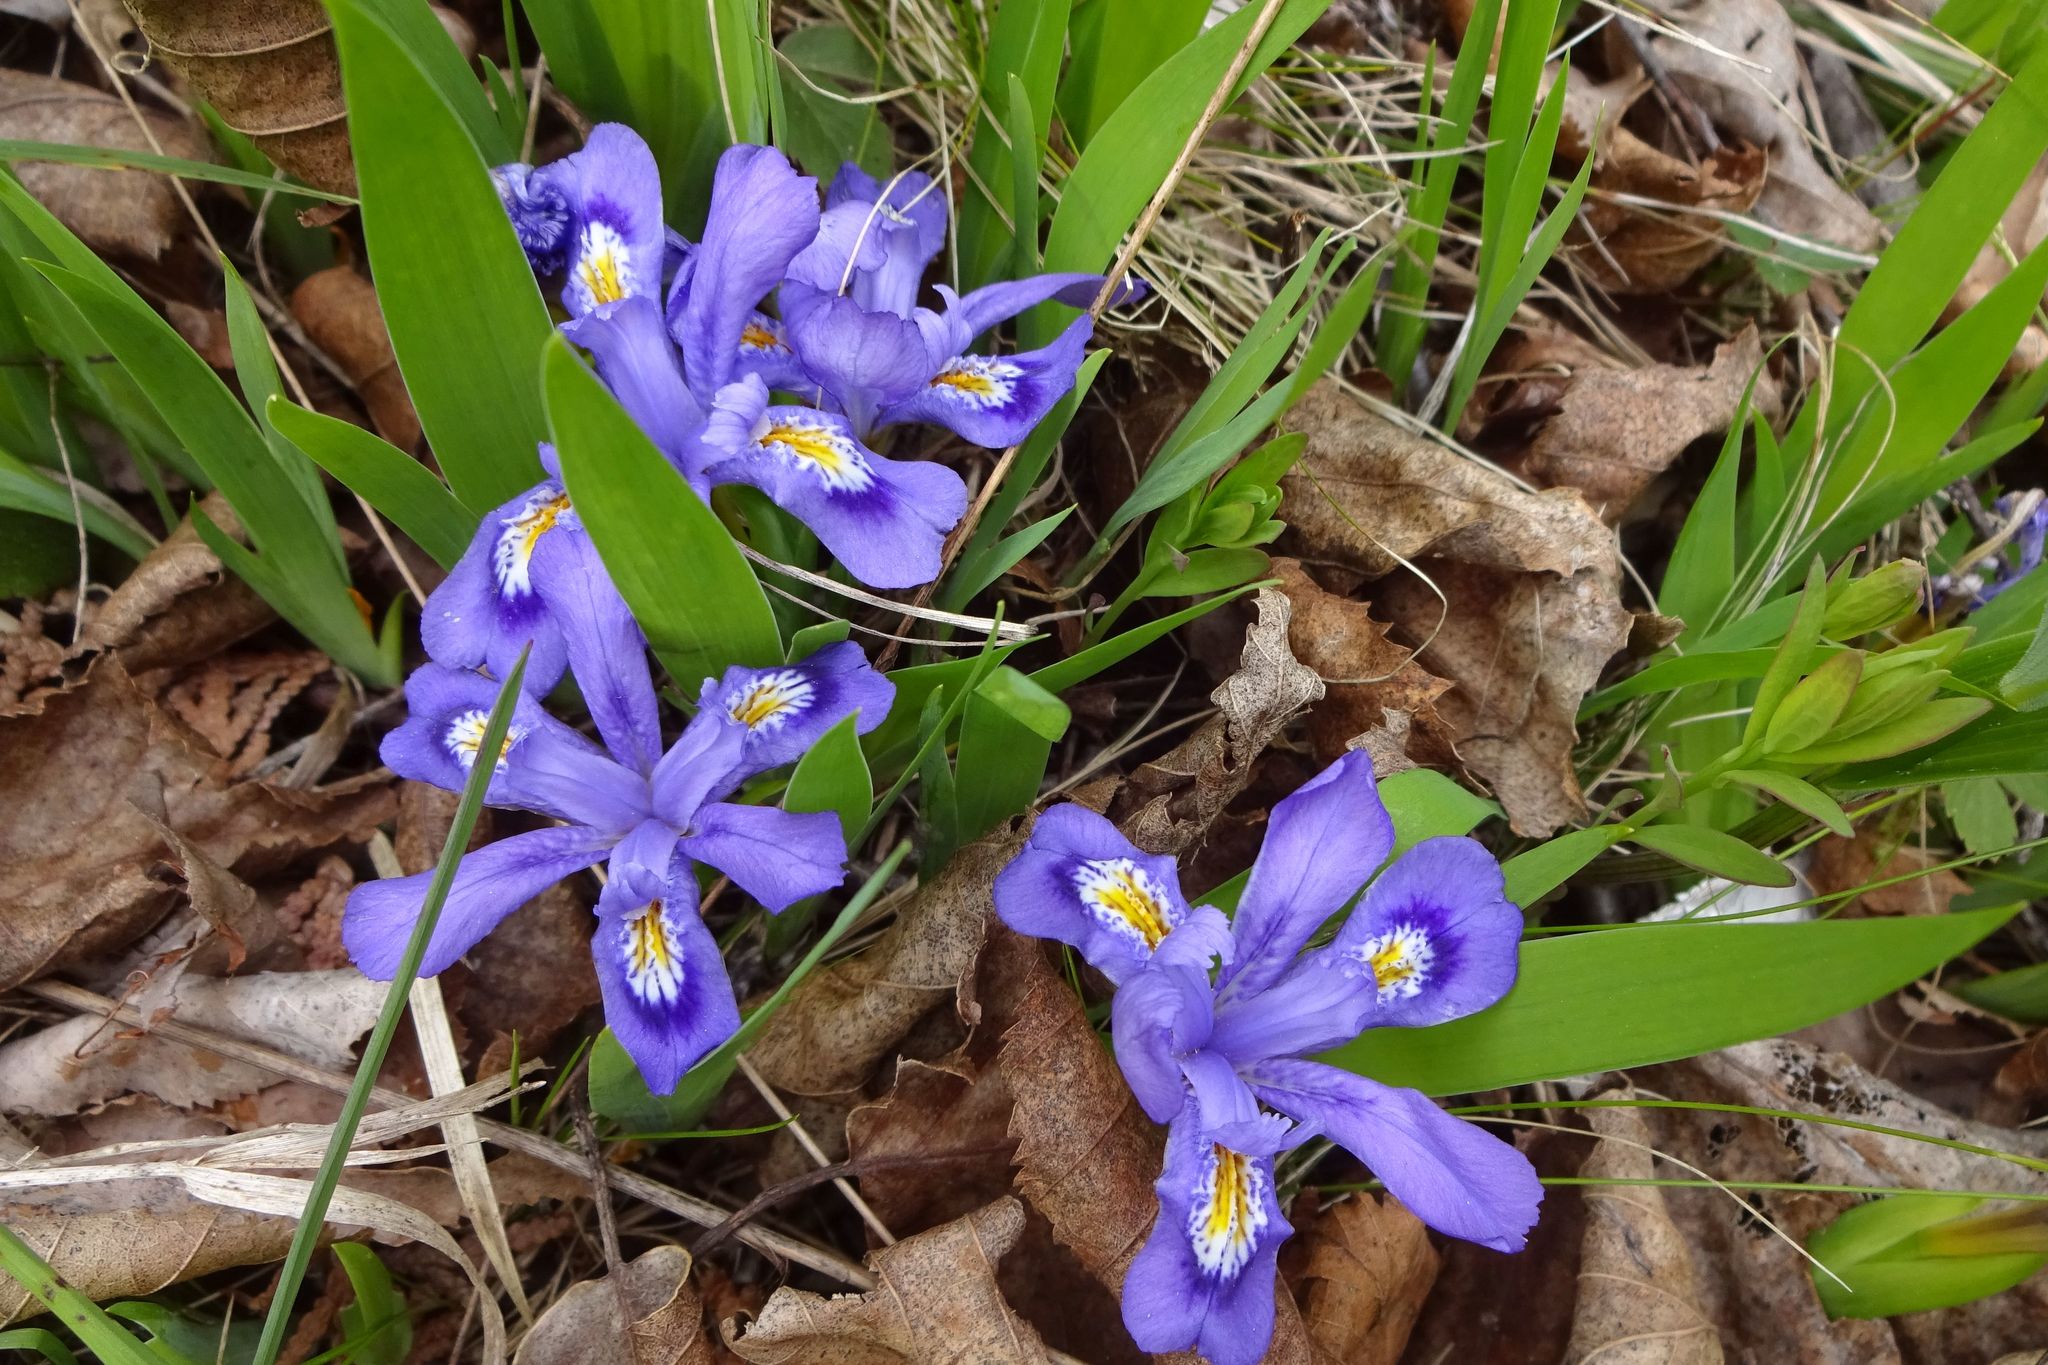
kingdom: Plantae
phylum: Tracheophyta
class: Liliopsida
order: Asparagales
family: Iridaceae
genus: Iris
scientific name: Iris lacustris
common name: Dwarf lake iris
